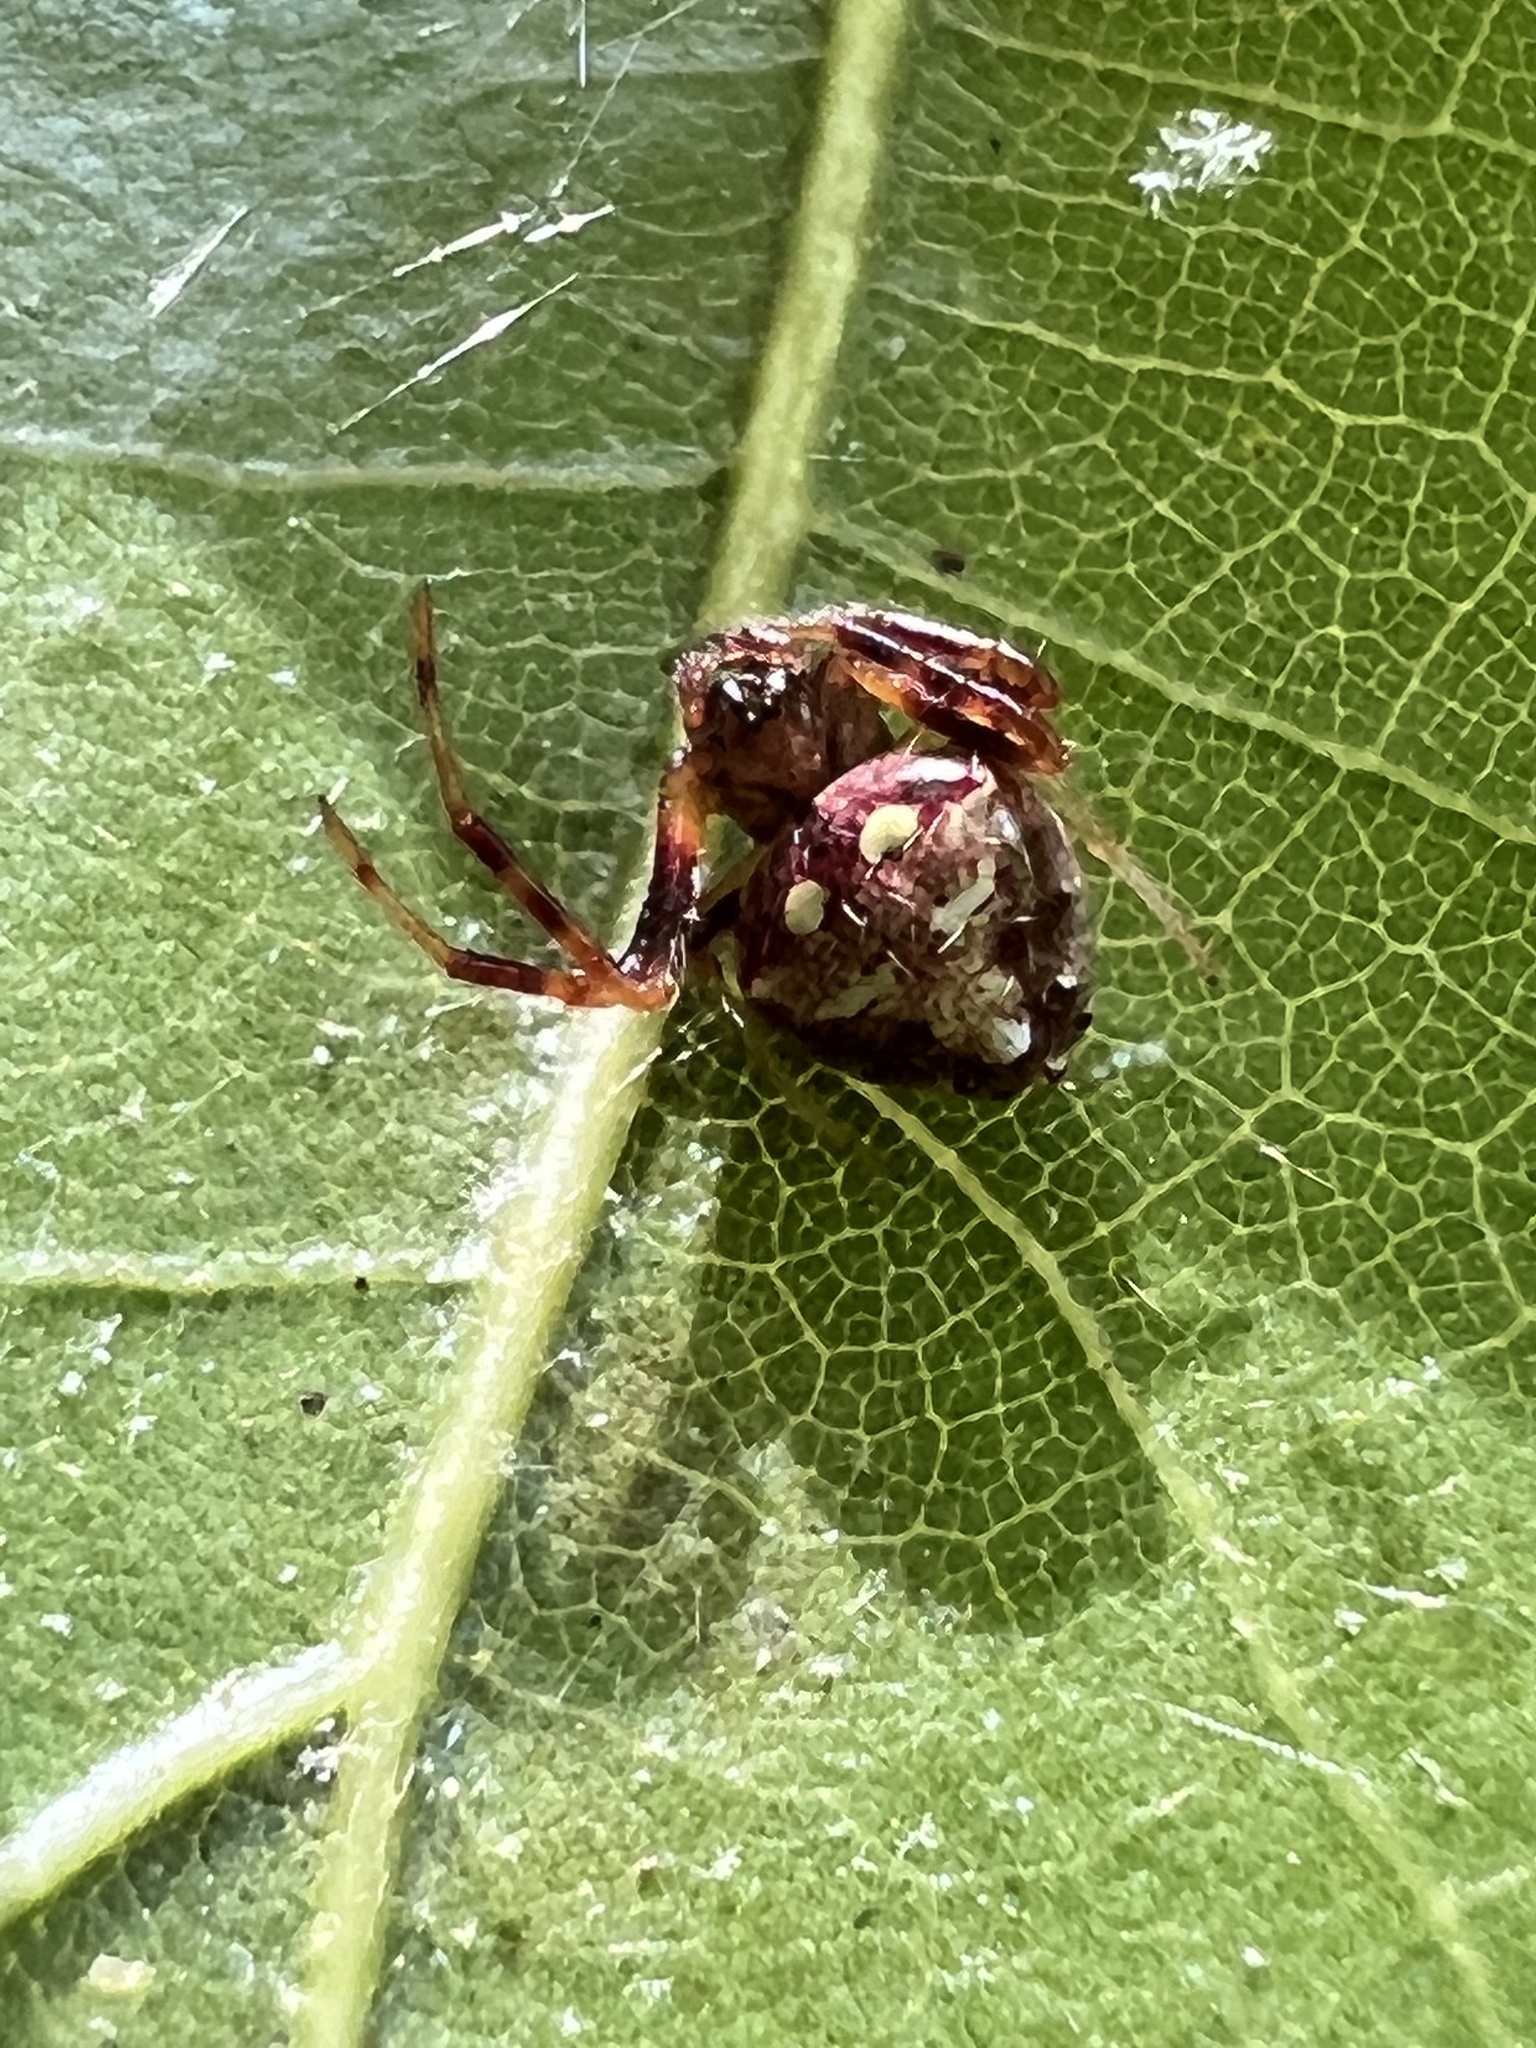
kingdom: Animalia
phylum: Arthropoda
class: Arachnida
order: Araneae
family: Araneidae
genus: Verrucosa
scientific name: Verrucosa arenata
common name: Orb weavers
